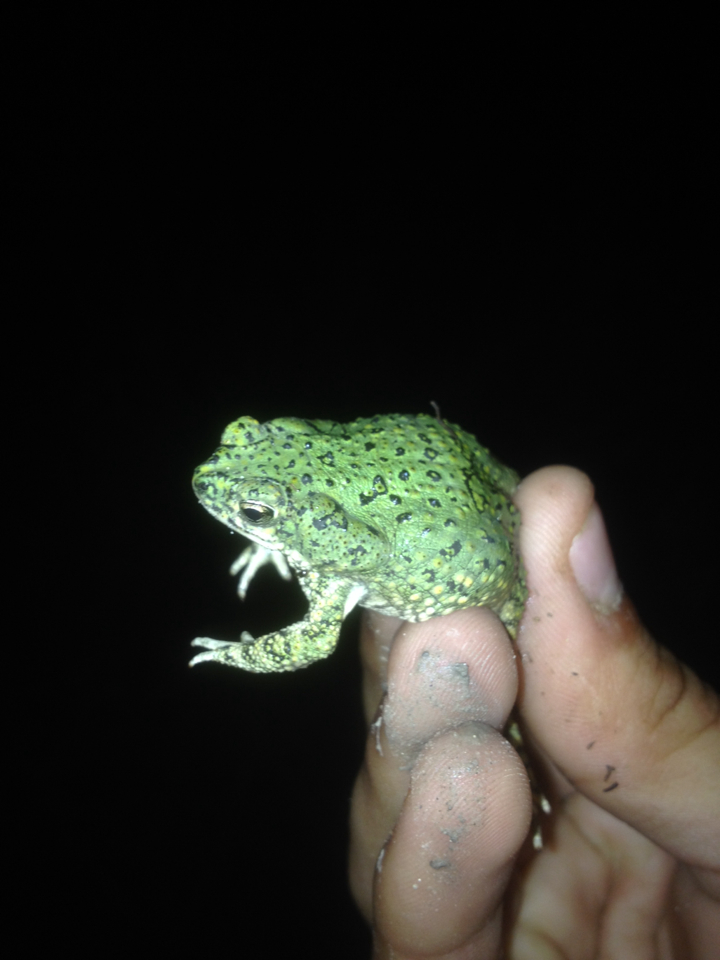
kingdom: Animalia
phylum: Chordata
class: Amphibia
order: Anura
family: Bufonidae
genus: Anaxyrus
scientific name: Anaxyrus debilis
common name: Green toad
